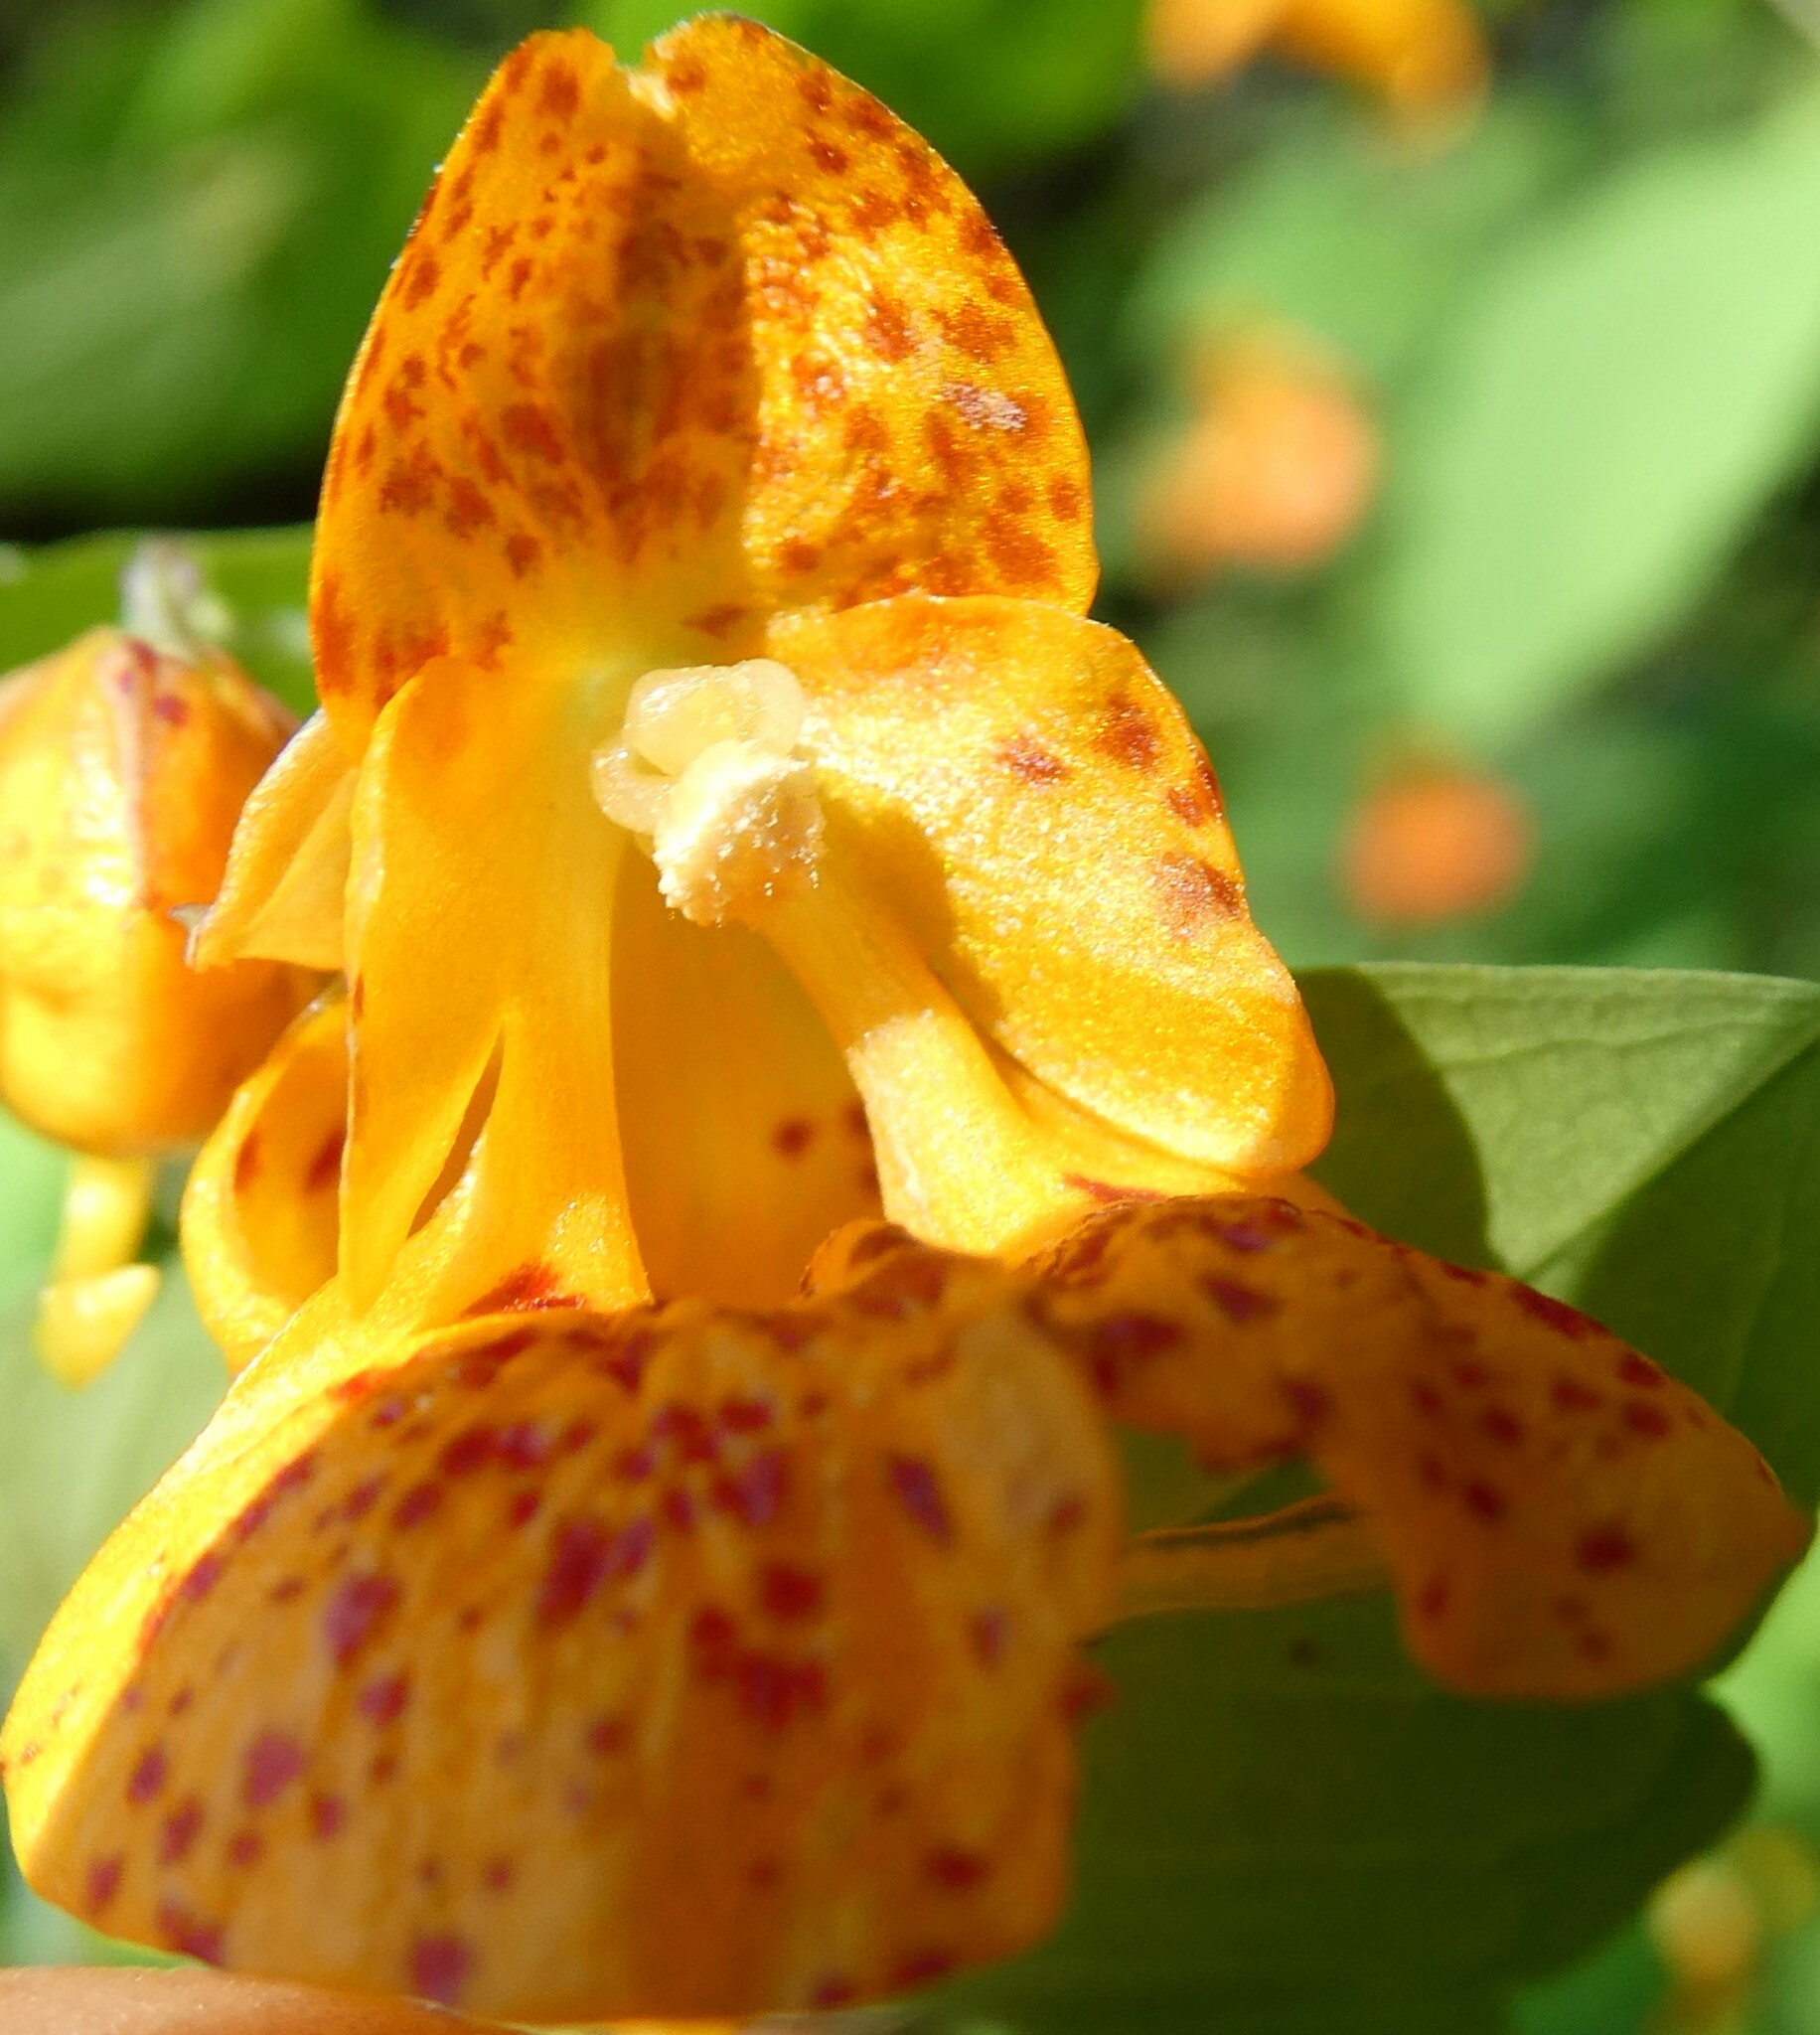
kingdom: Plantae
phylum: Tracheophyta
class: Magnoliopsida
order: Ericales
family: Balsaminaceae
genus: Impatiens
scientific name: Impatiens capensis
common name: Orange balsam
